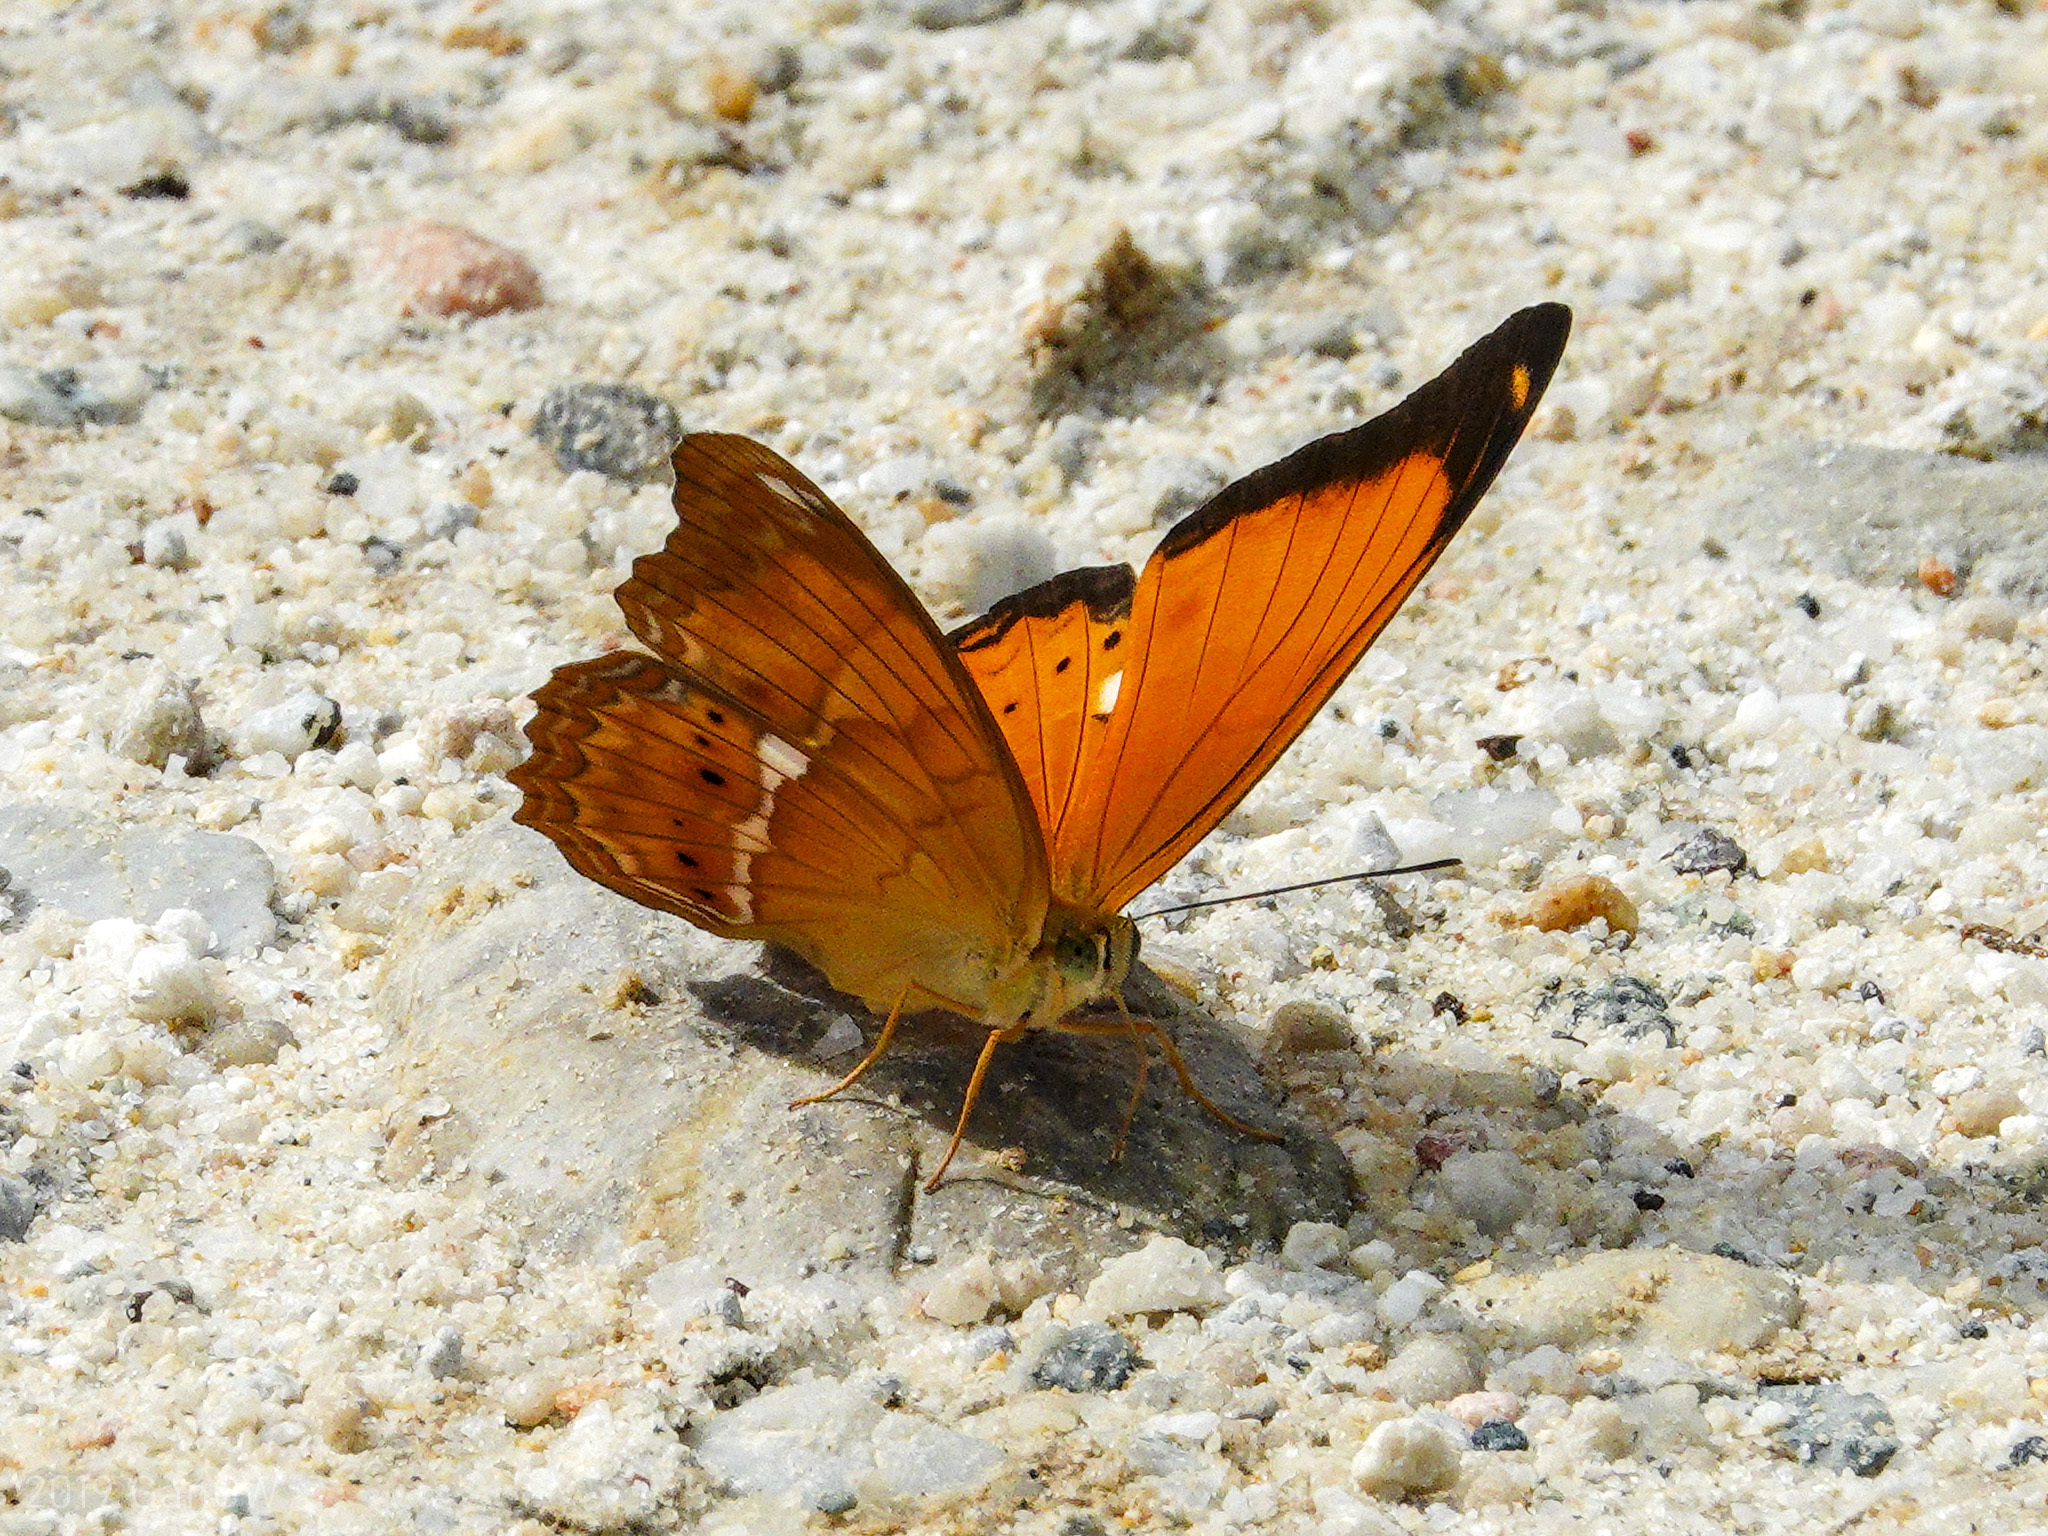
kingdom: Animalia
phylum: Arthropoda
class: Insecta
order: Lepidoptera
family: Nymphalidae
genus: Cirrochroa
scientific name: Cirrochroa emalea
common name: Malay yeoman
